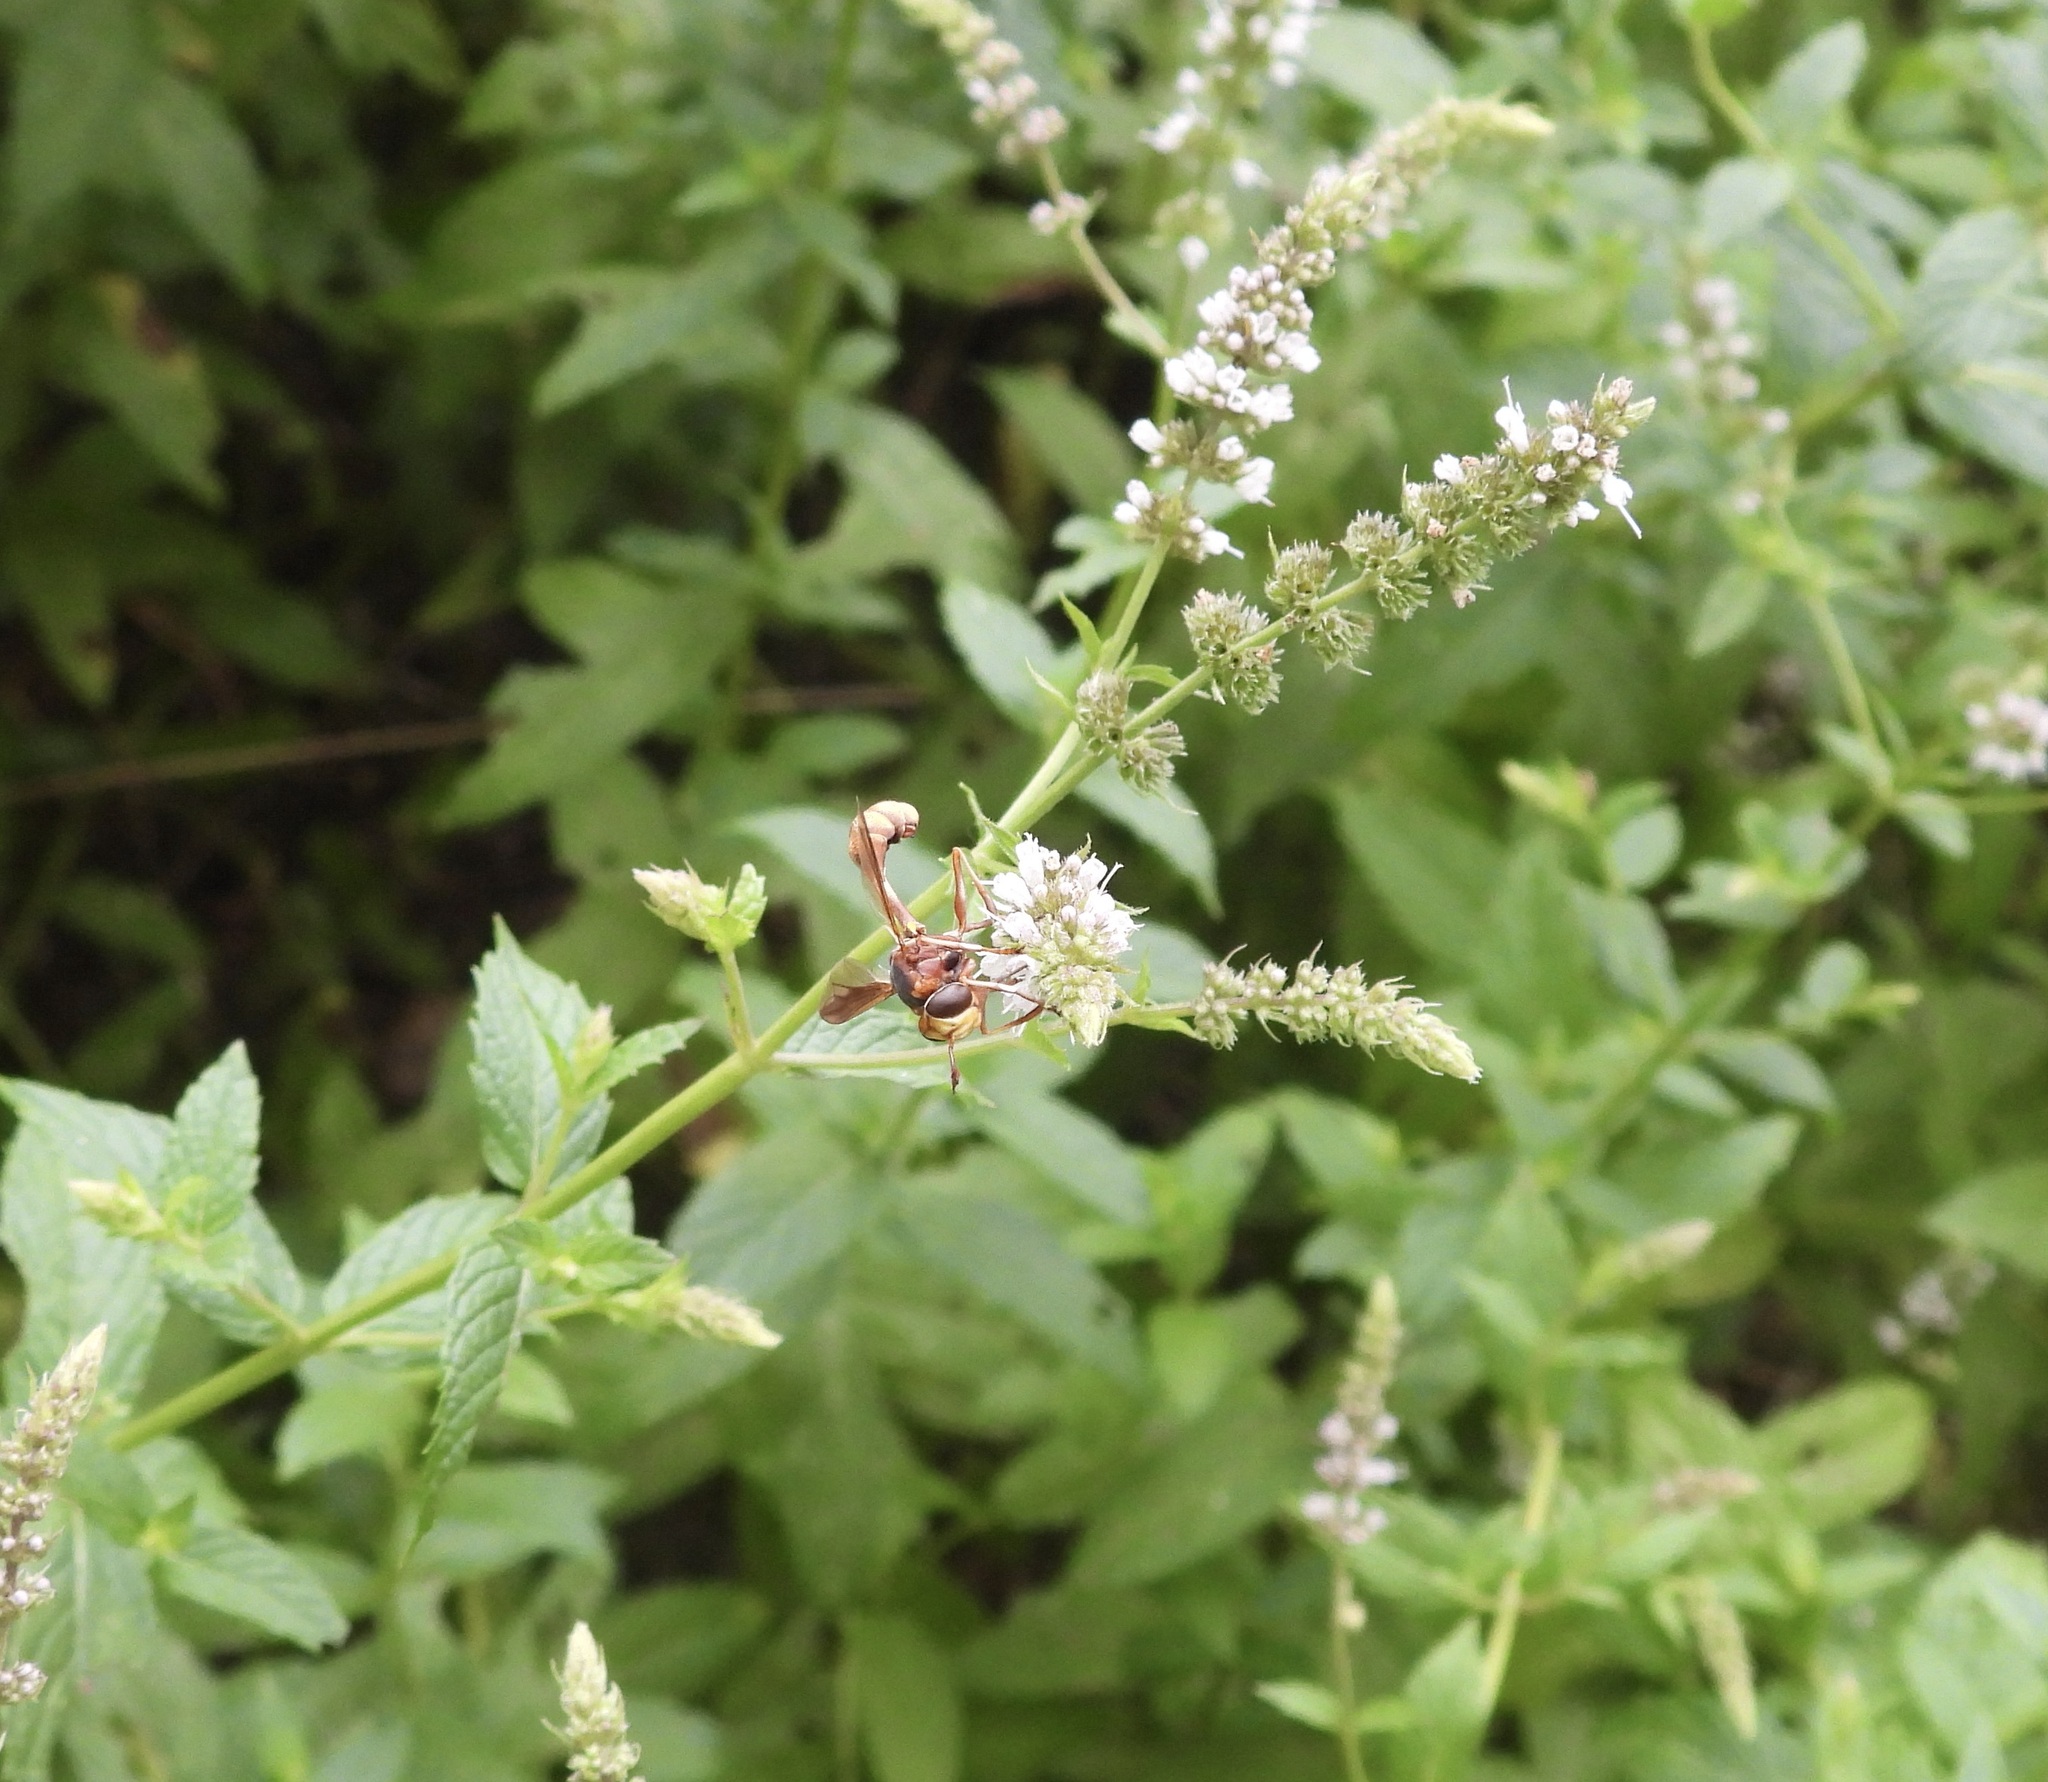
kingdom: Animalia
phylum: Arthropoda
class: Insecta
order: Diptera
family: Conopidae
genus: Physocephala
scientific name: Physocephala texana
